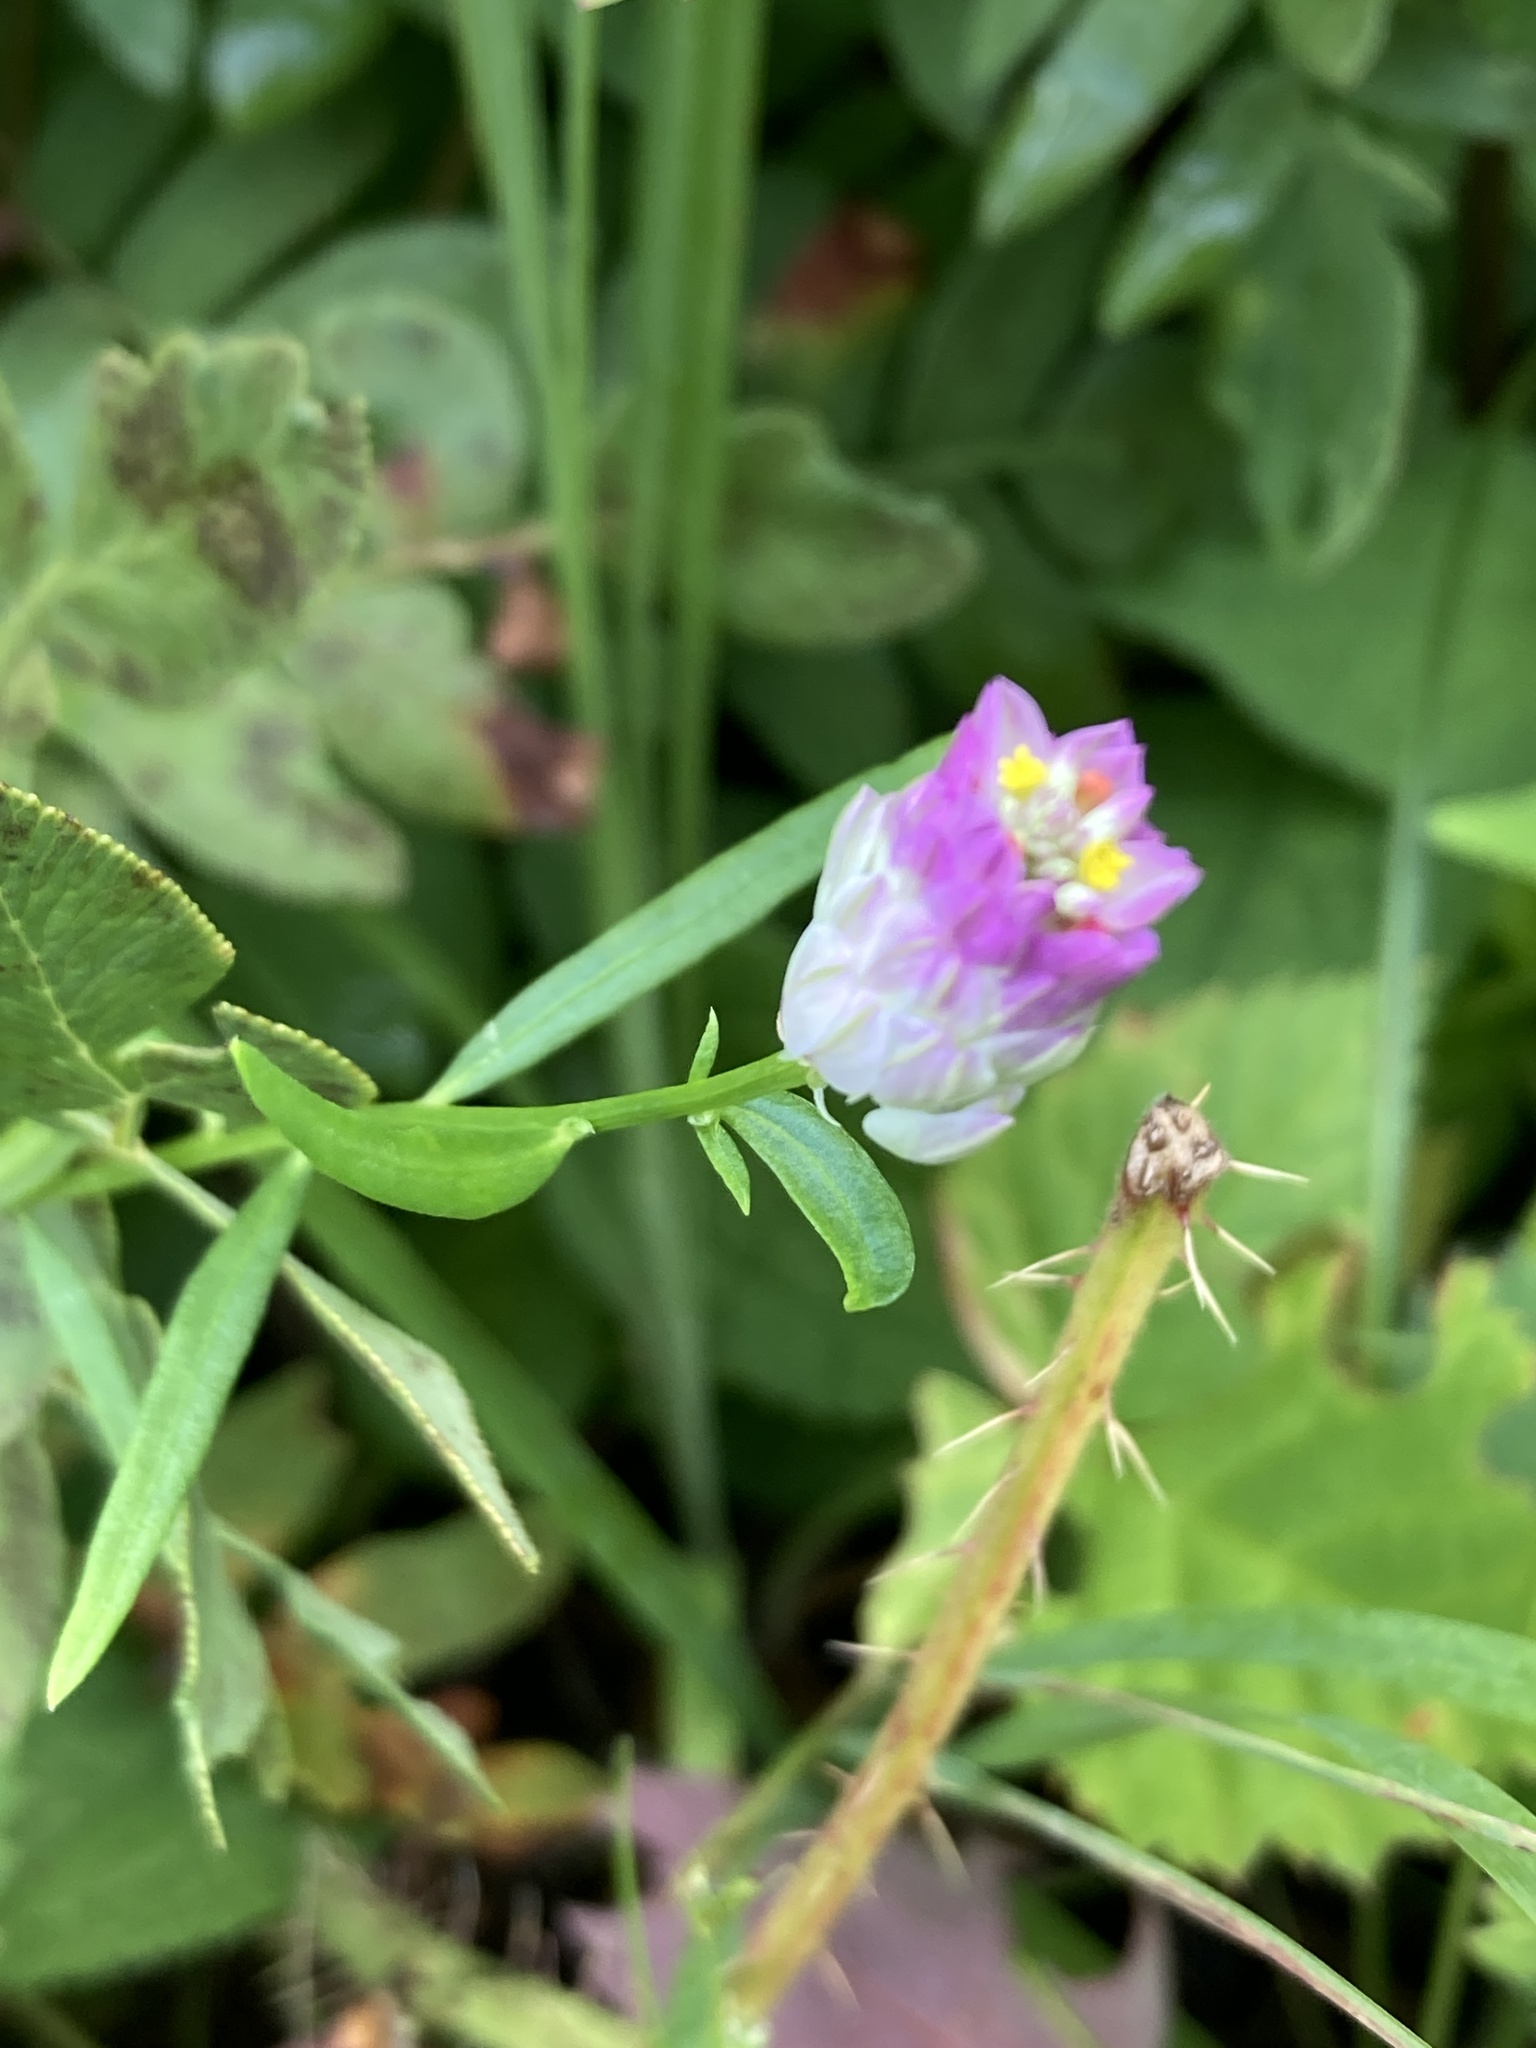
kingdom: Plantae
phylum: Tracheophyta
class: Magnoliopsida
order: Fabales
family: Polygalaceae
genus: Polygala
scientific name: Polygala sanguinea
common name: Blood milkwort
